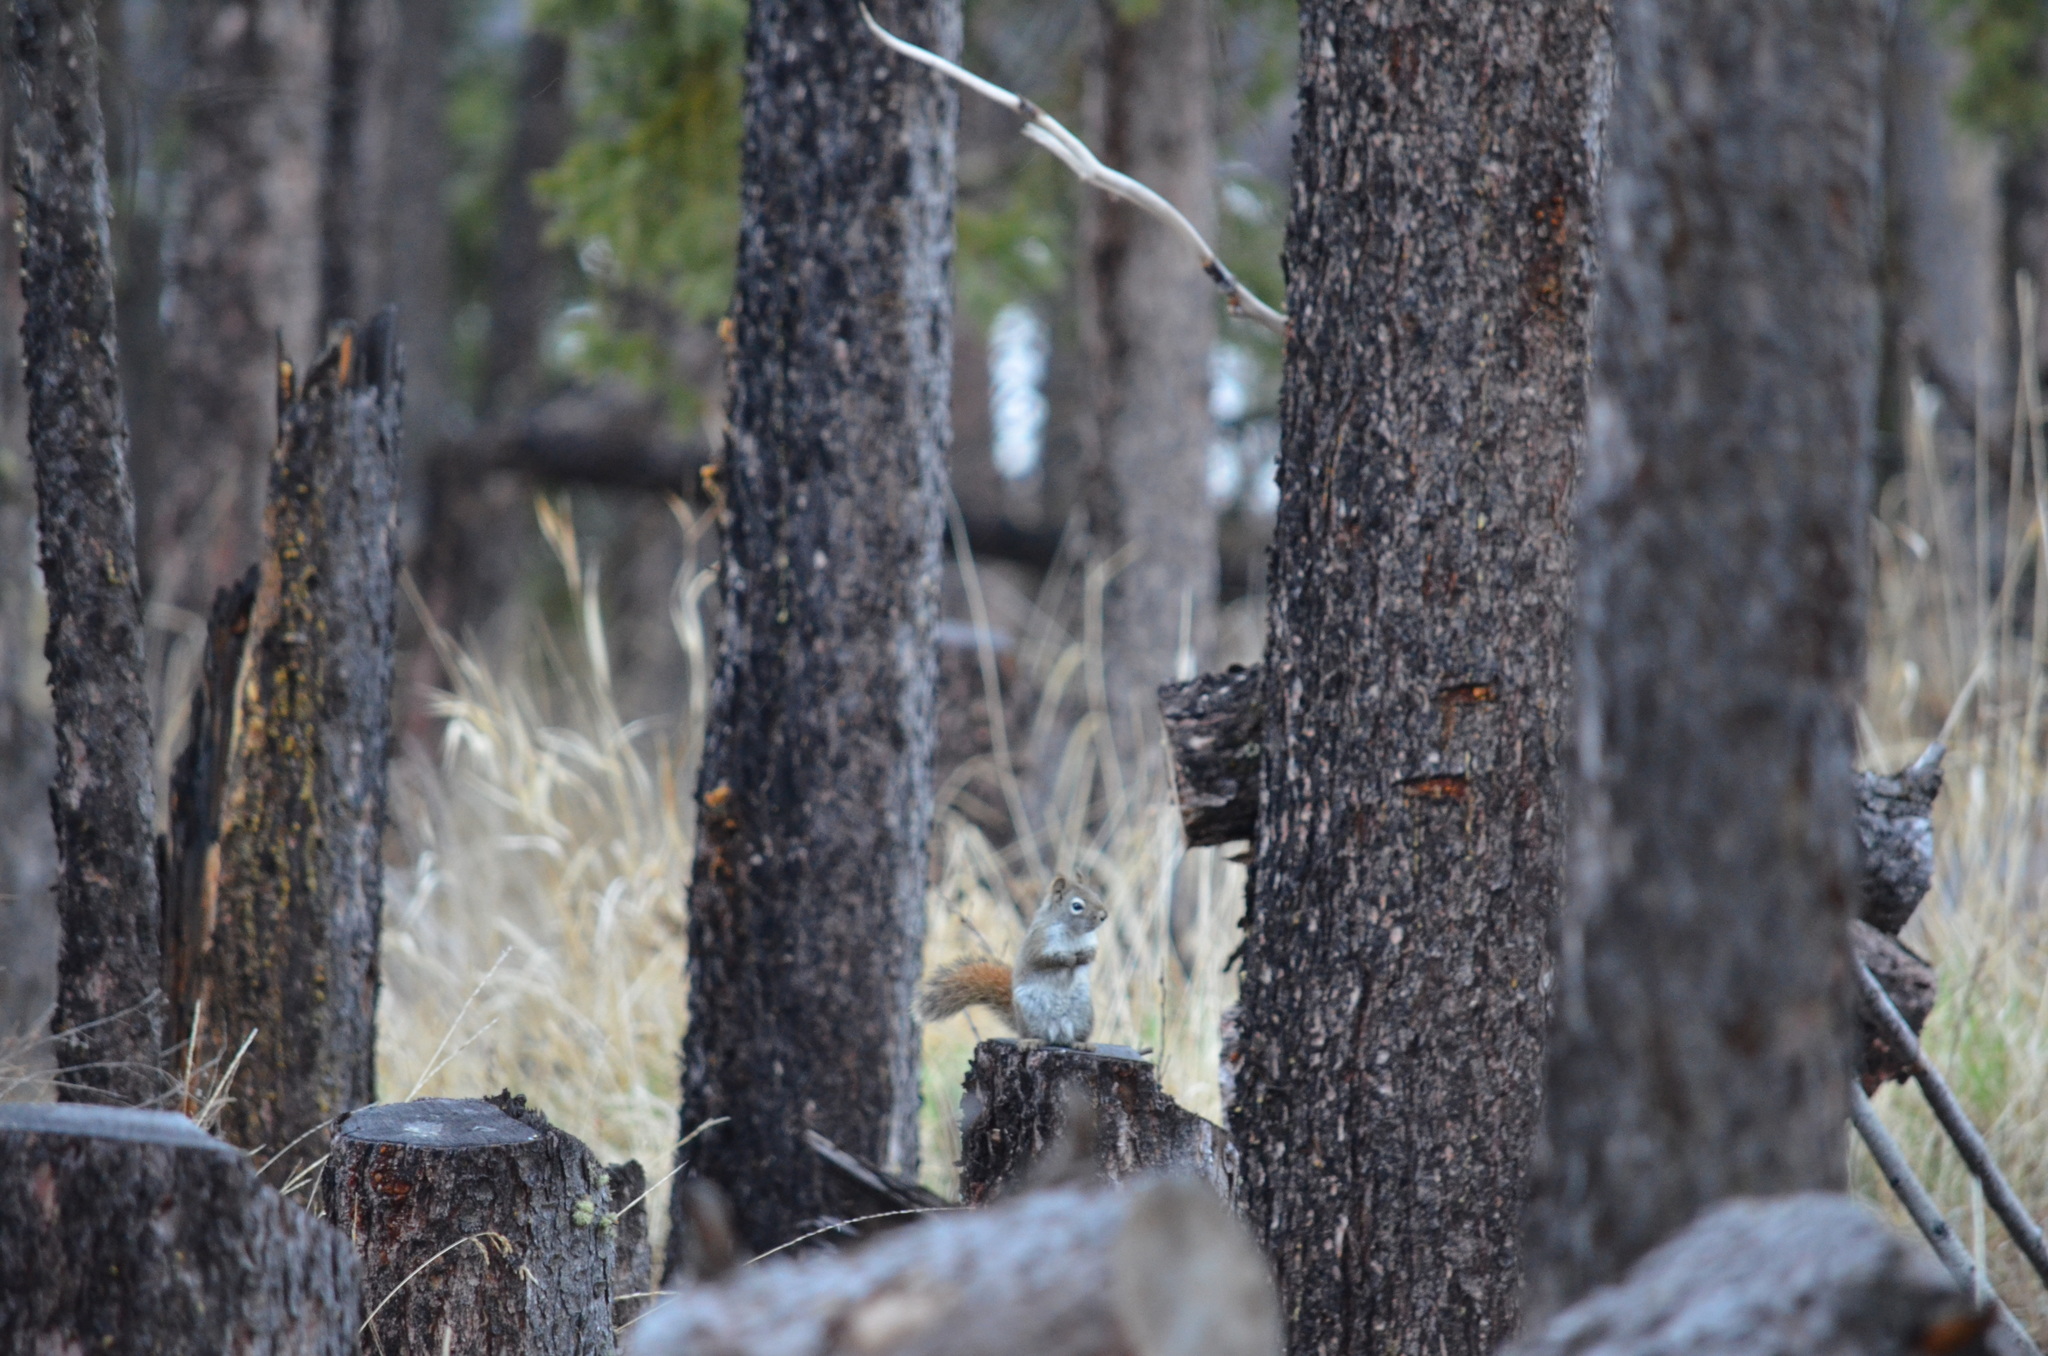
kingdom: Animalia
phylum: Chordata
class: Mammalia
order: Rodentia
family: Sciuridae
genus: Tamiasciurus
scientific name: Tamiasciurus hudsonicus
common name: Red squirrel
